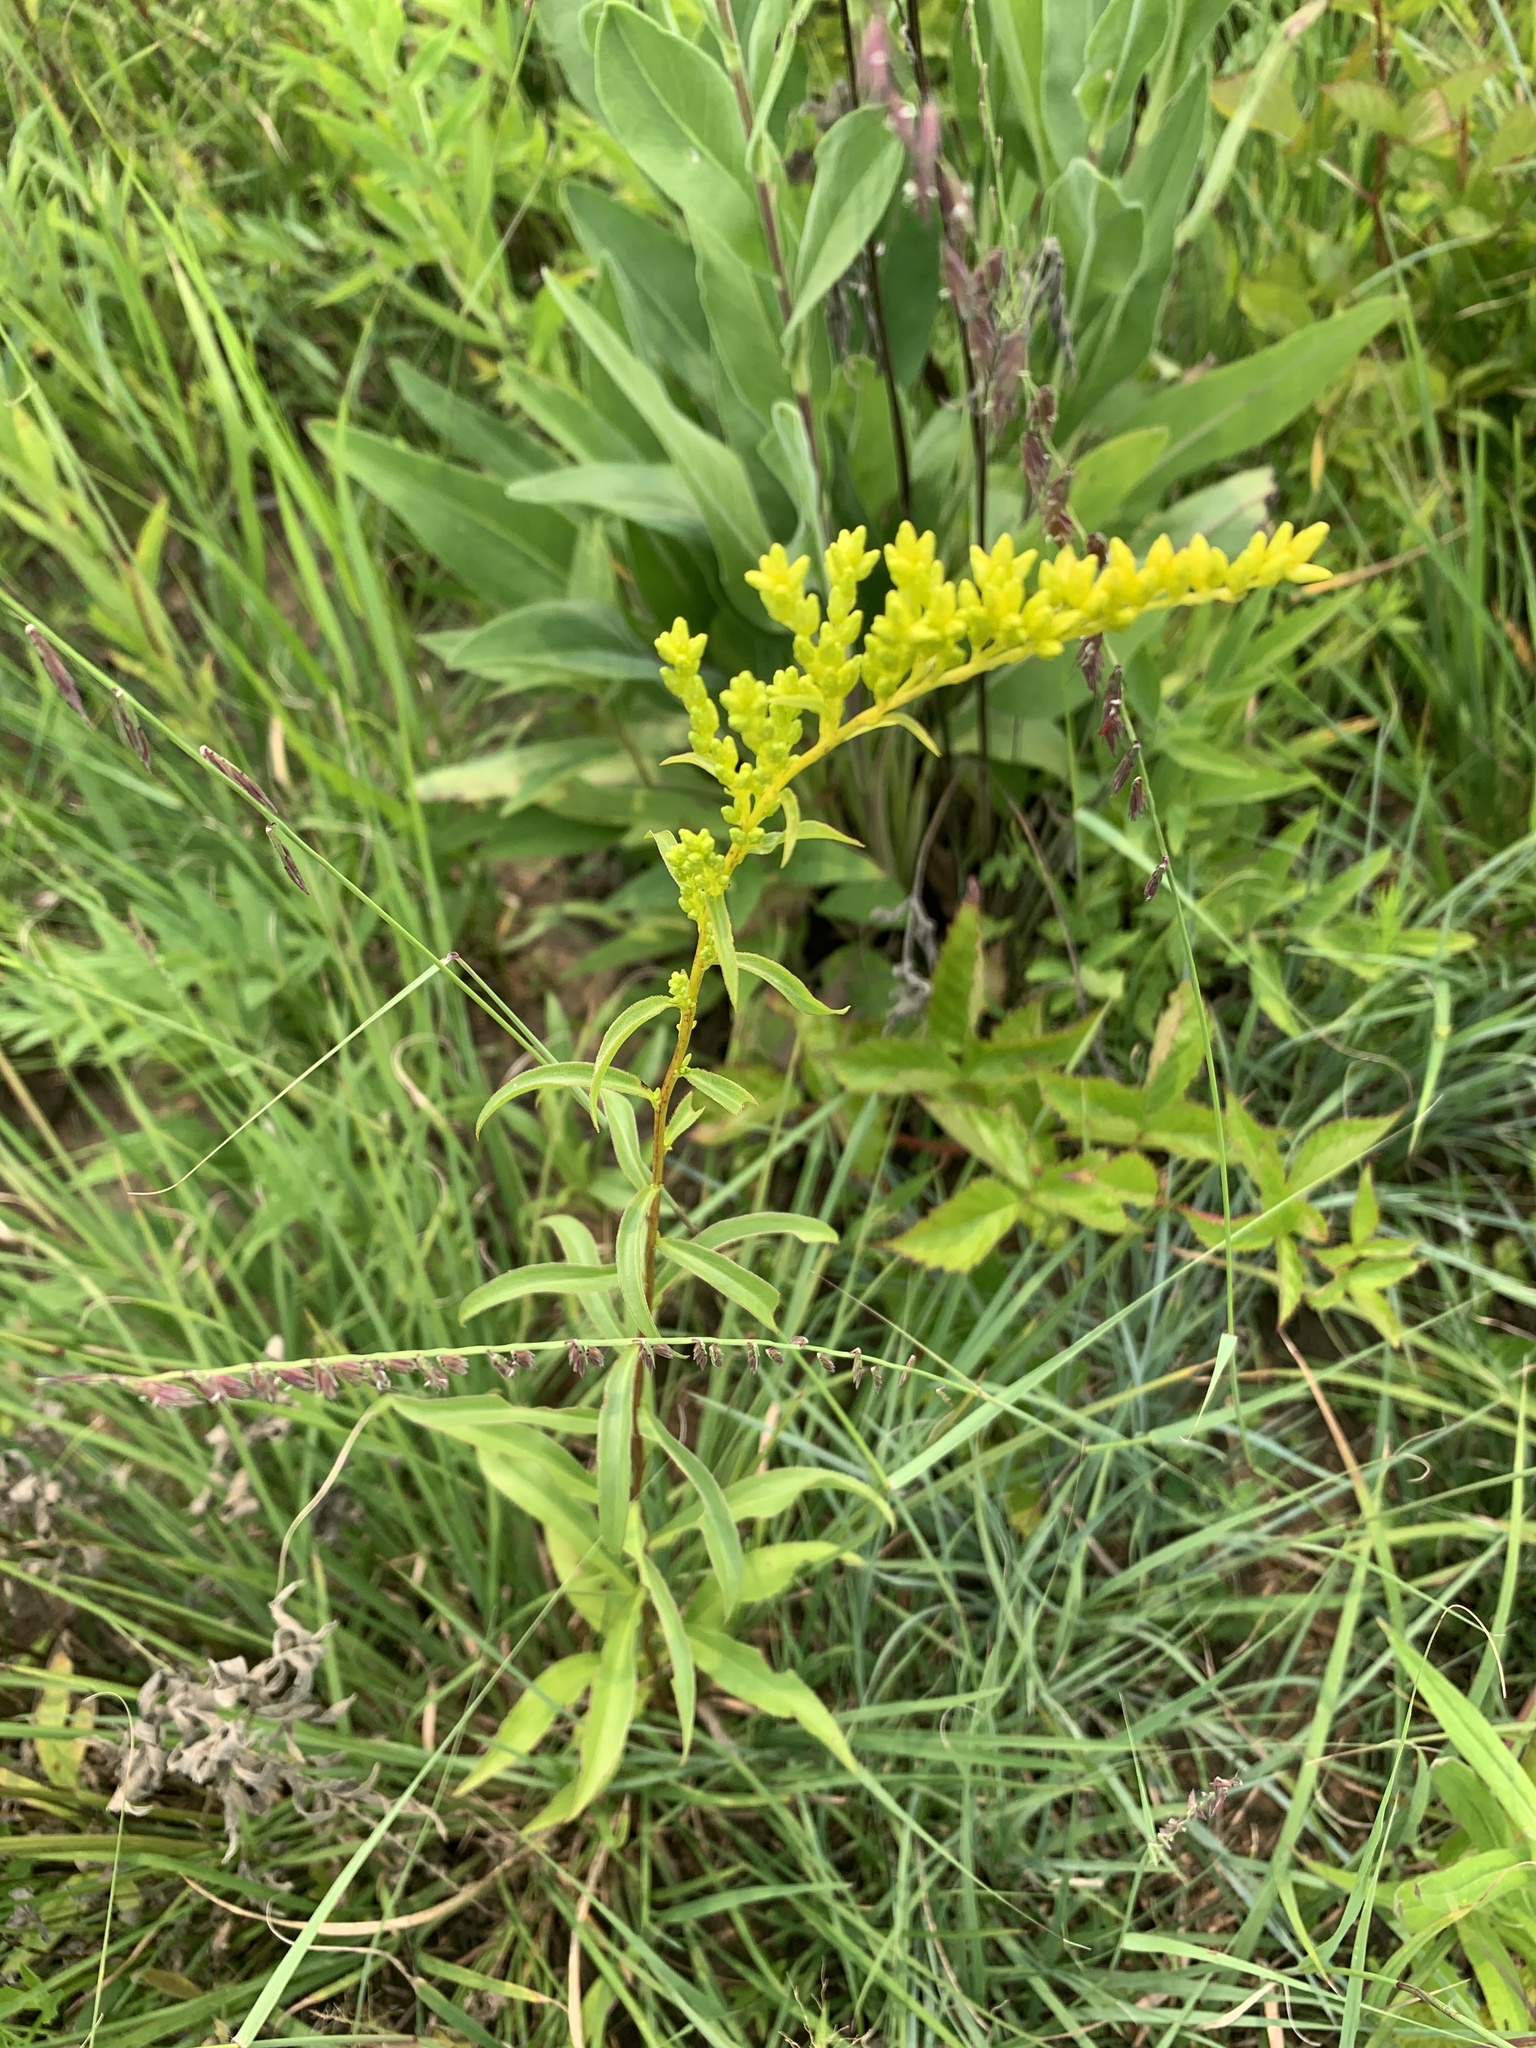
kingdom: Plantae
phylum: Tracheophyta
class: Magnoliopsida
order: Asterales
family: Asteraceae
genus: Solidago
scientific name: Solidago juncea
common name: Early goldenrod
